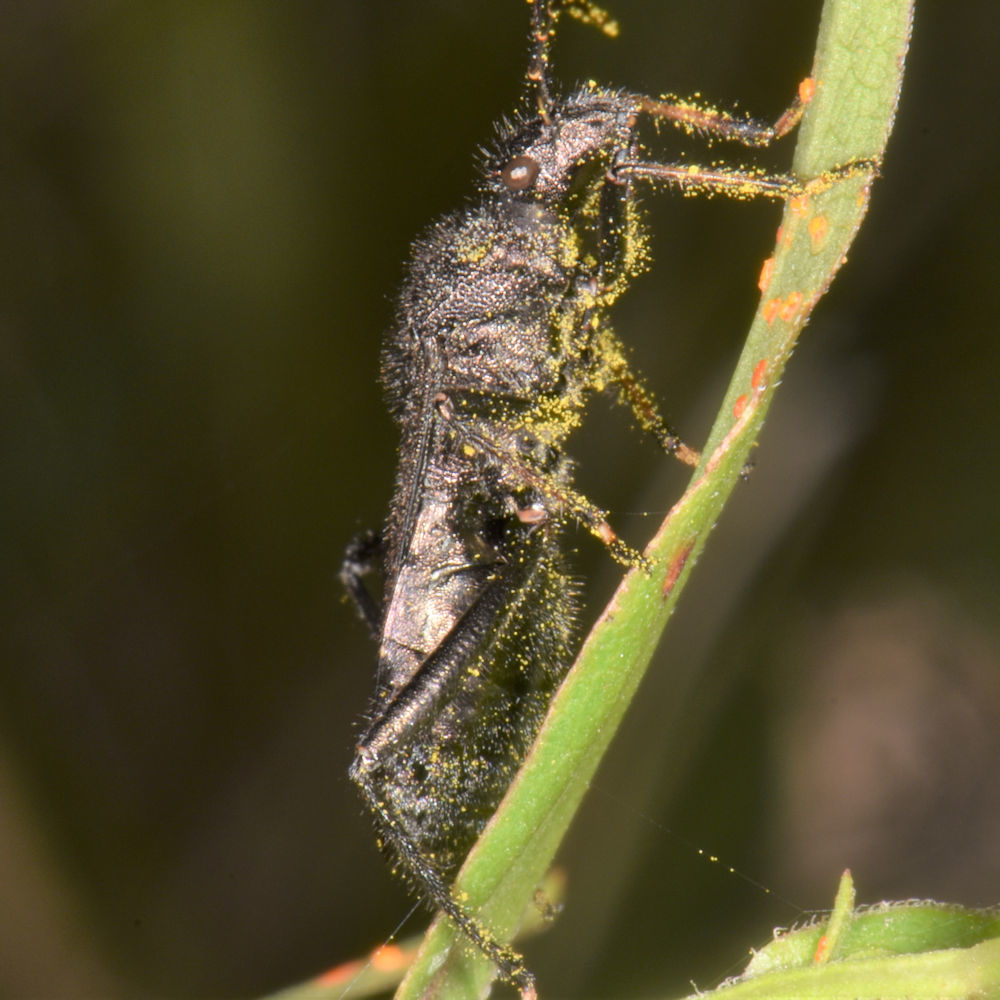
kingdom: Animalia
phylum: Arthropoda
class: Insecta
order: Hemiptera
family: Alydidae
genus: Alydus
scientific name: Alydus eurinus
